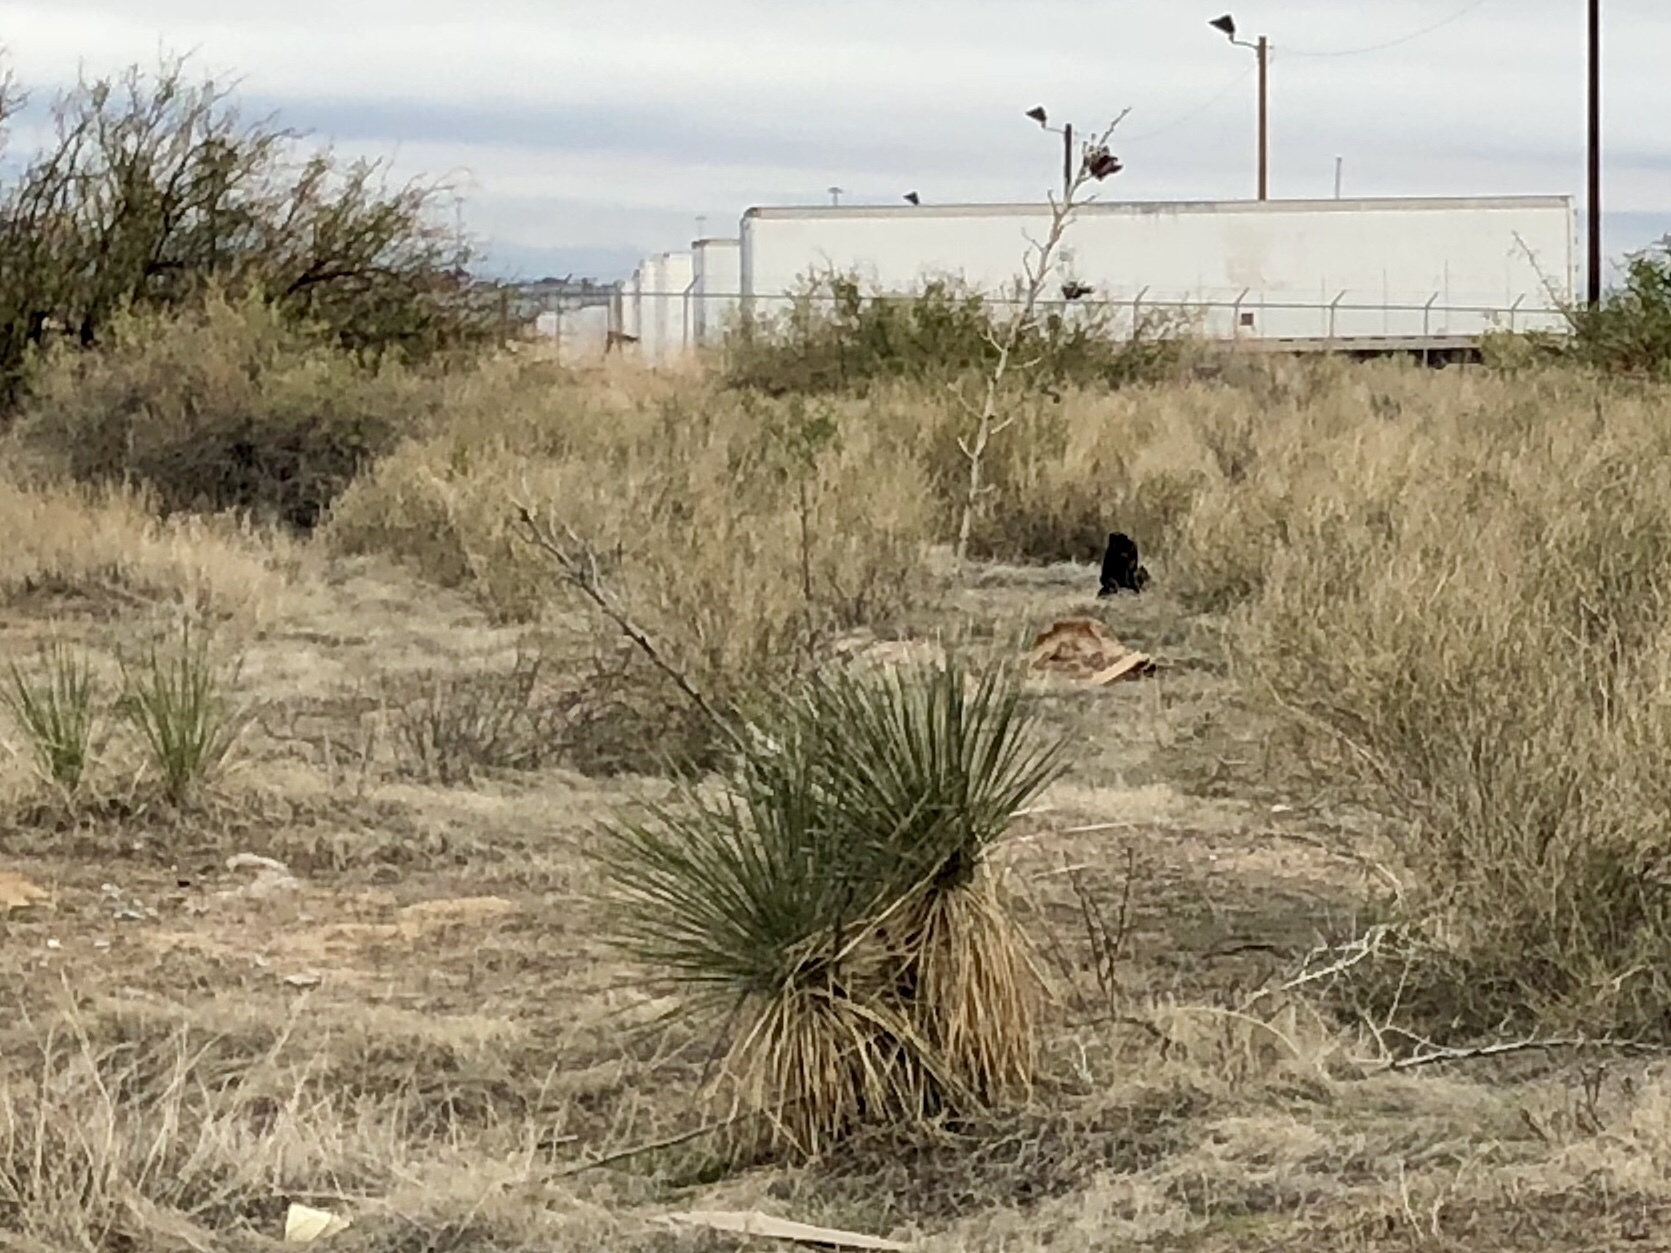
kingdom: Plantae
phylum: Tracheophyta
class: Liliopsida
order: Asparagales
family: Asparagaceae
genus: Yucca
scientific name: Yucca elata
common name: Palmella
